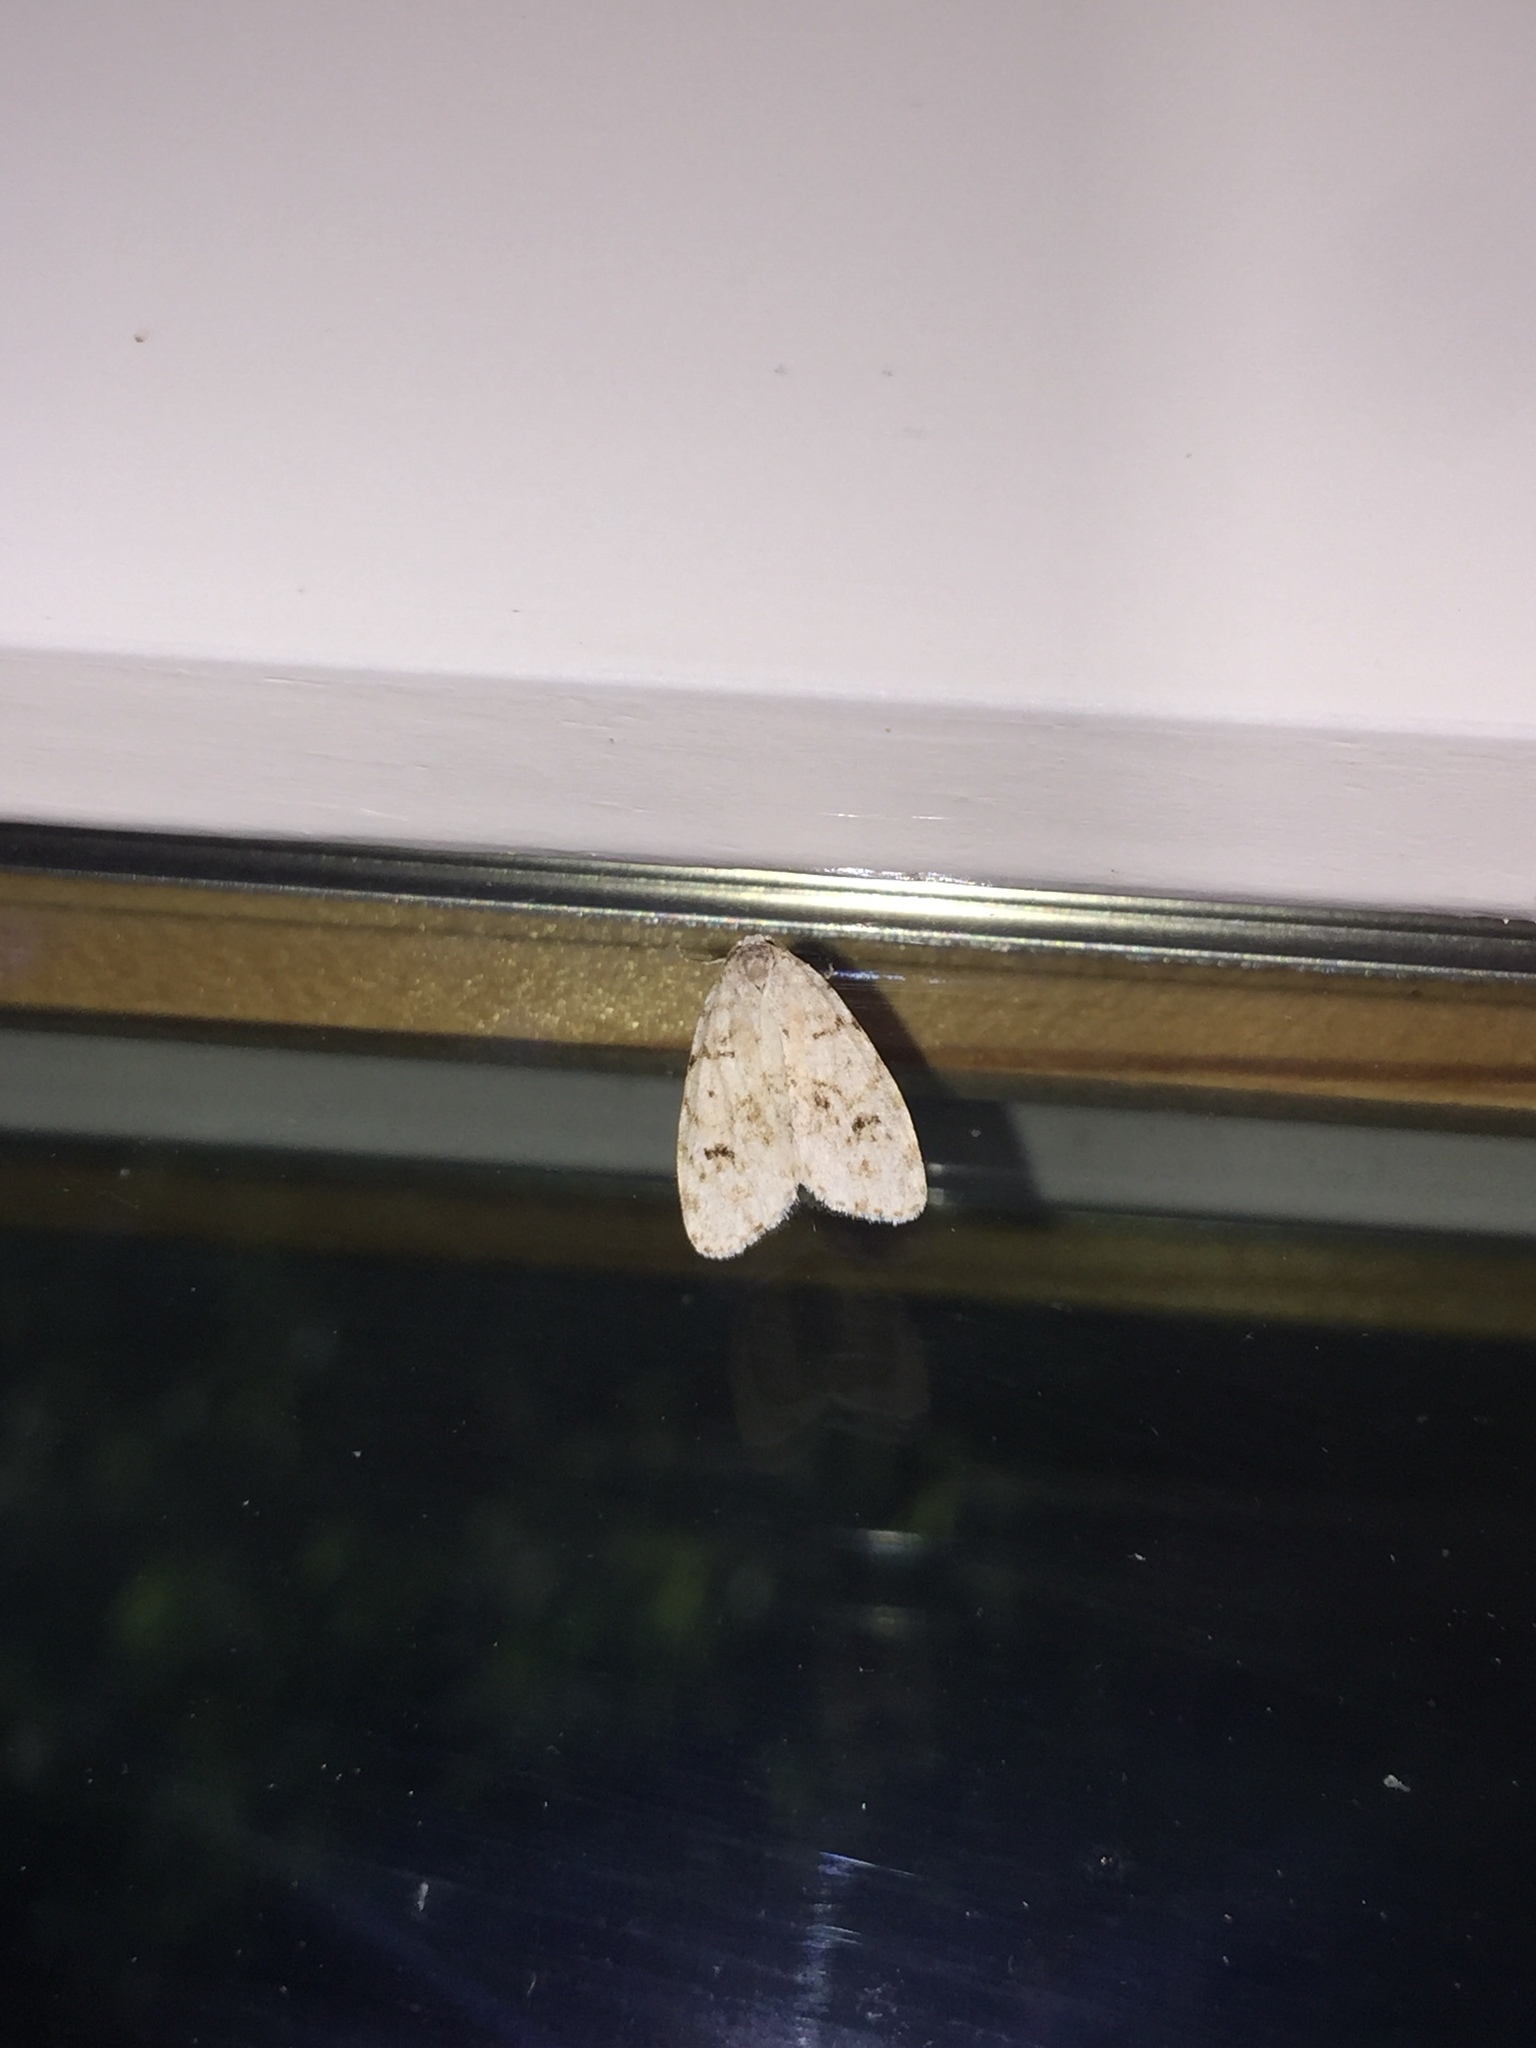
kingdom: Animalia
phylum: Arthropoda
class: Insecta
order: Lepidoptera
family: Erebidae
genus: Clemensia
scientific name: Clemensia albata
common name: Little white lichen moth
